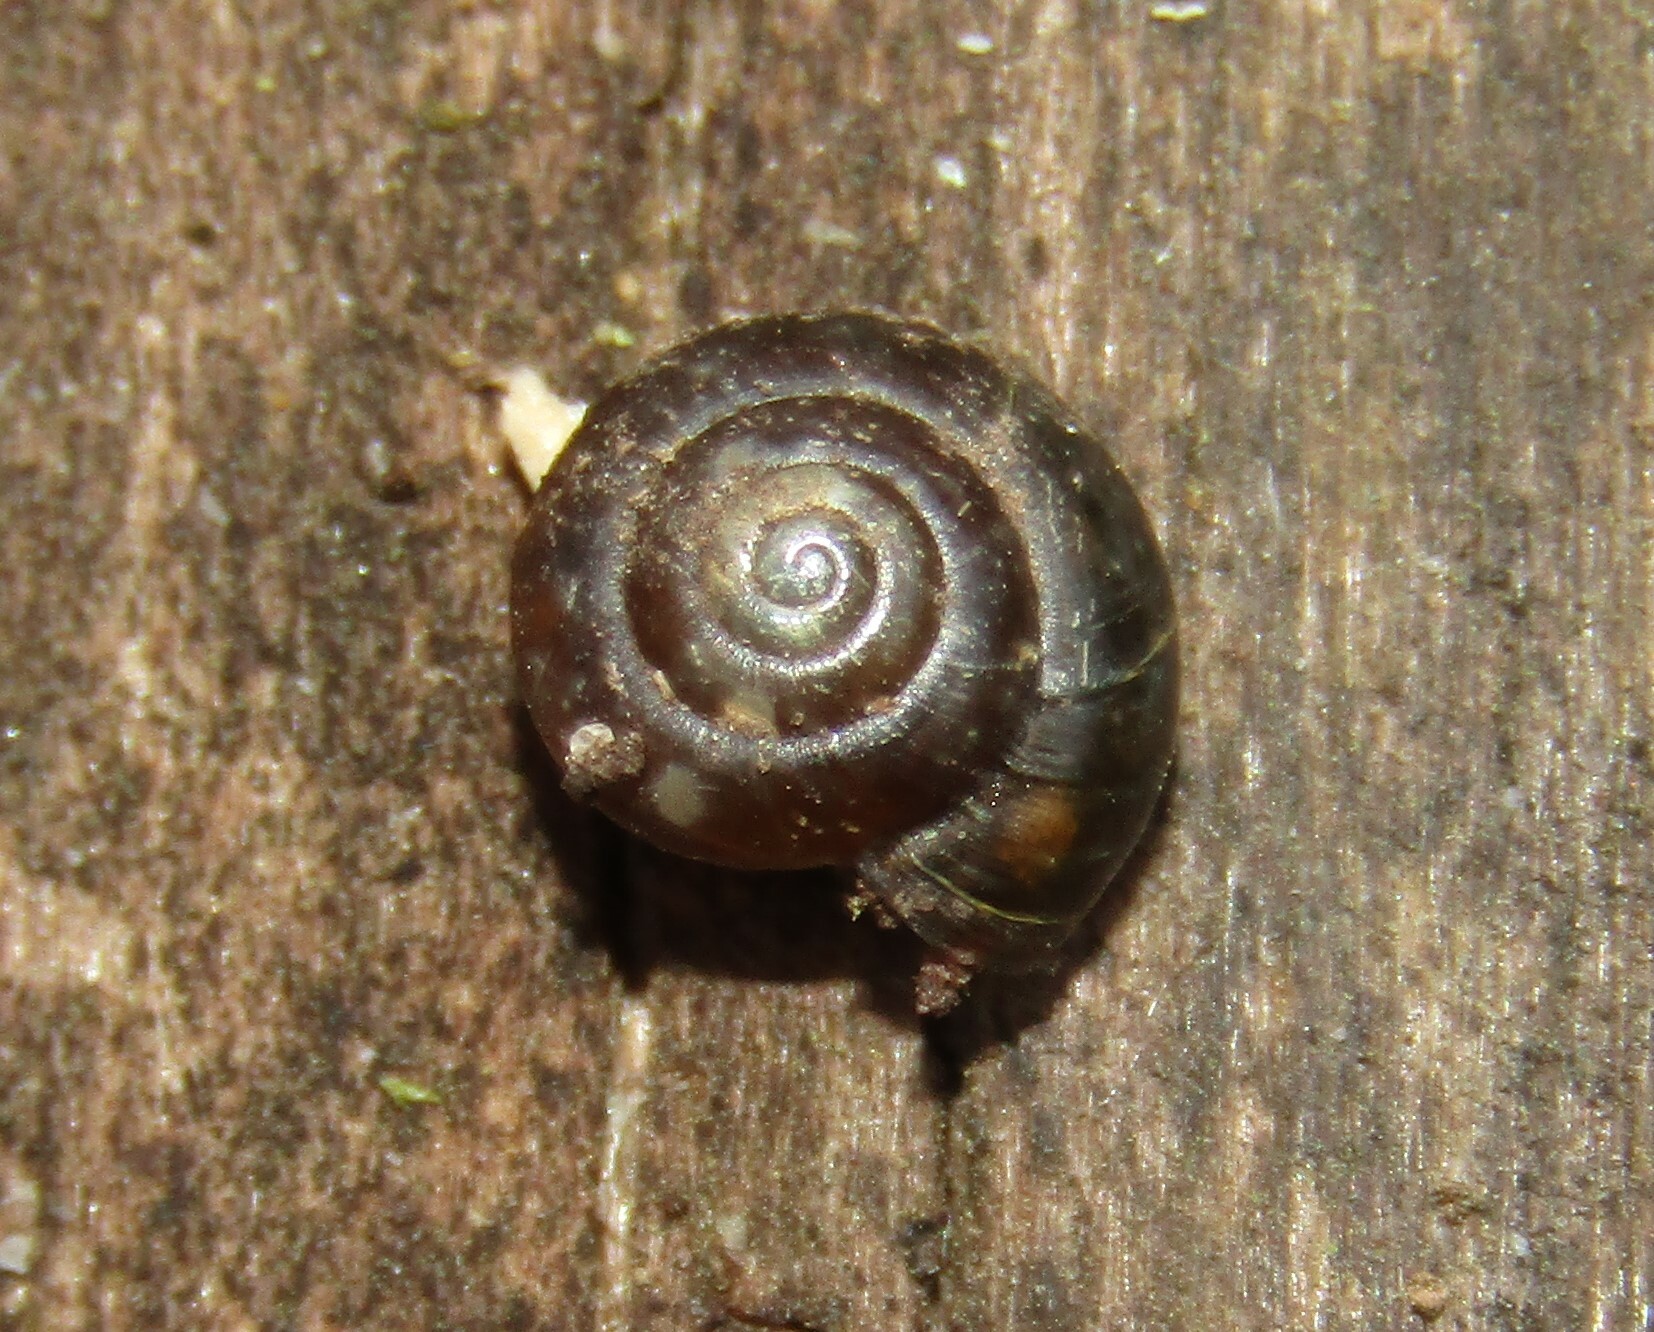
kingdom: Animalia
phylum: Mollusca
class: Gastropoda
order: Stylommatophora
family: Gastrodontidae
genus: Zonitoides
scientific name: Zonitoides nitidus
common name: Shiny glass snail
